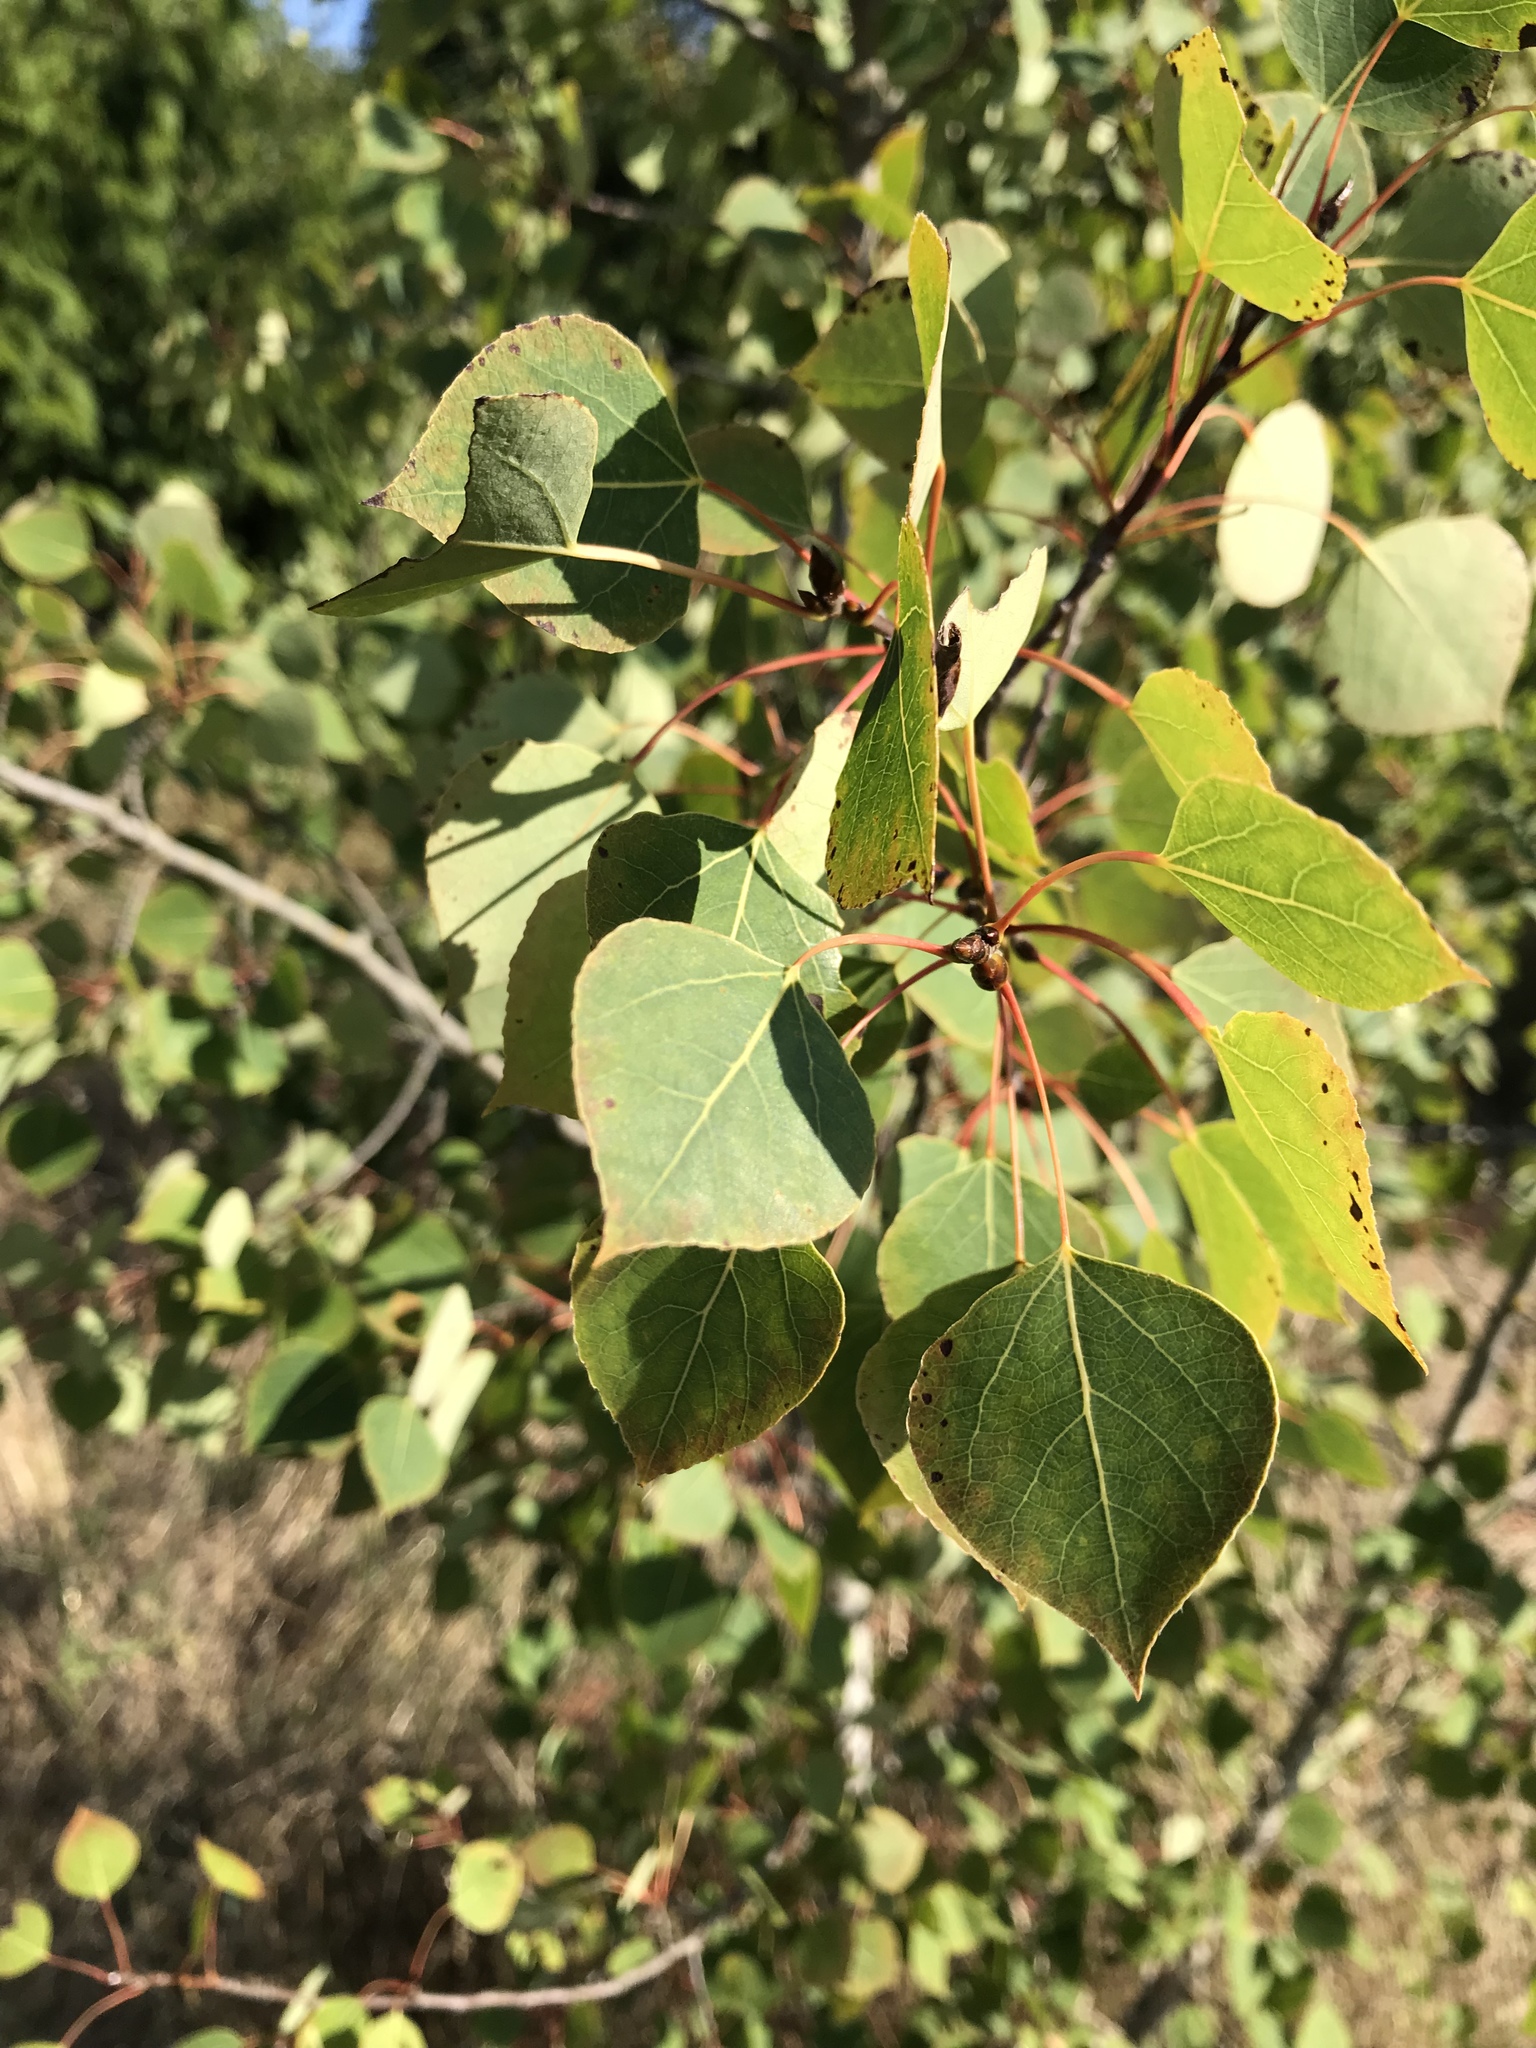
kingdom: Plantae
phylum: Tracheophyta
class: Magnoliopsida
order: Malpighiales
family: Salicaceae
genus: Populus
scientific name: Populus tremuloides
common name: Quaking aspen
